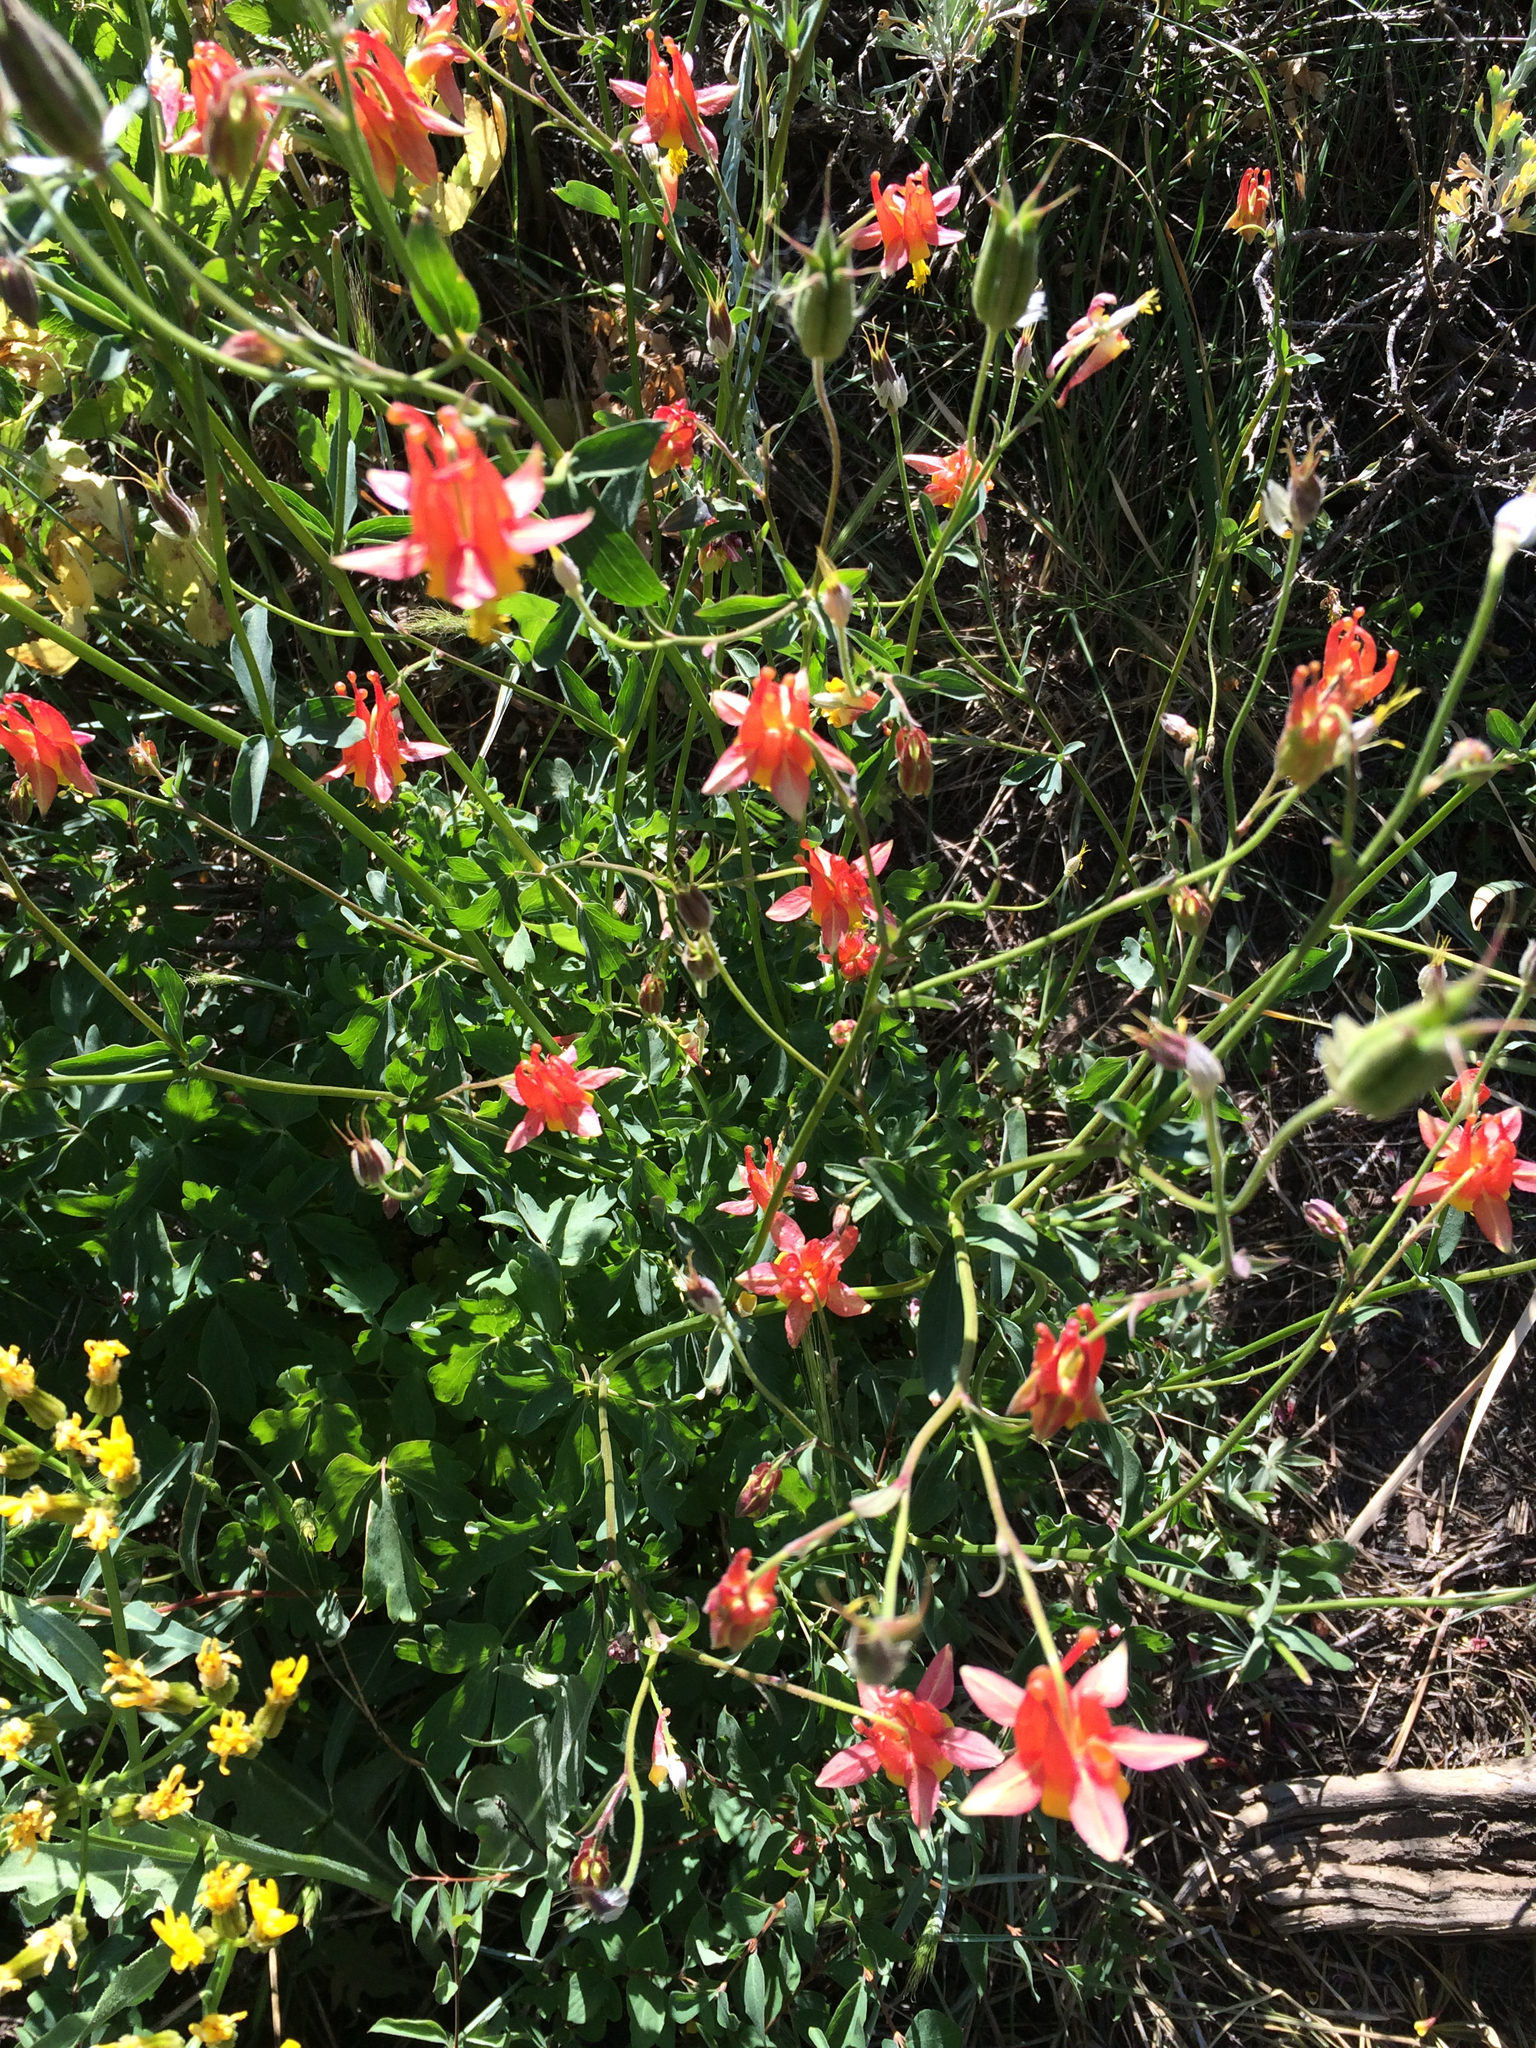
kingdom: Plantae
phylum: Tracheophyta
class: Magnoliopsida
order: Ranunculales
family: Ranunculaceae
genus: Aquilegia
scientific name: Aquilegia formosa
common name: Sitka columbine
